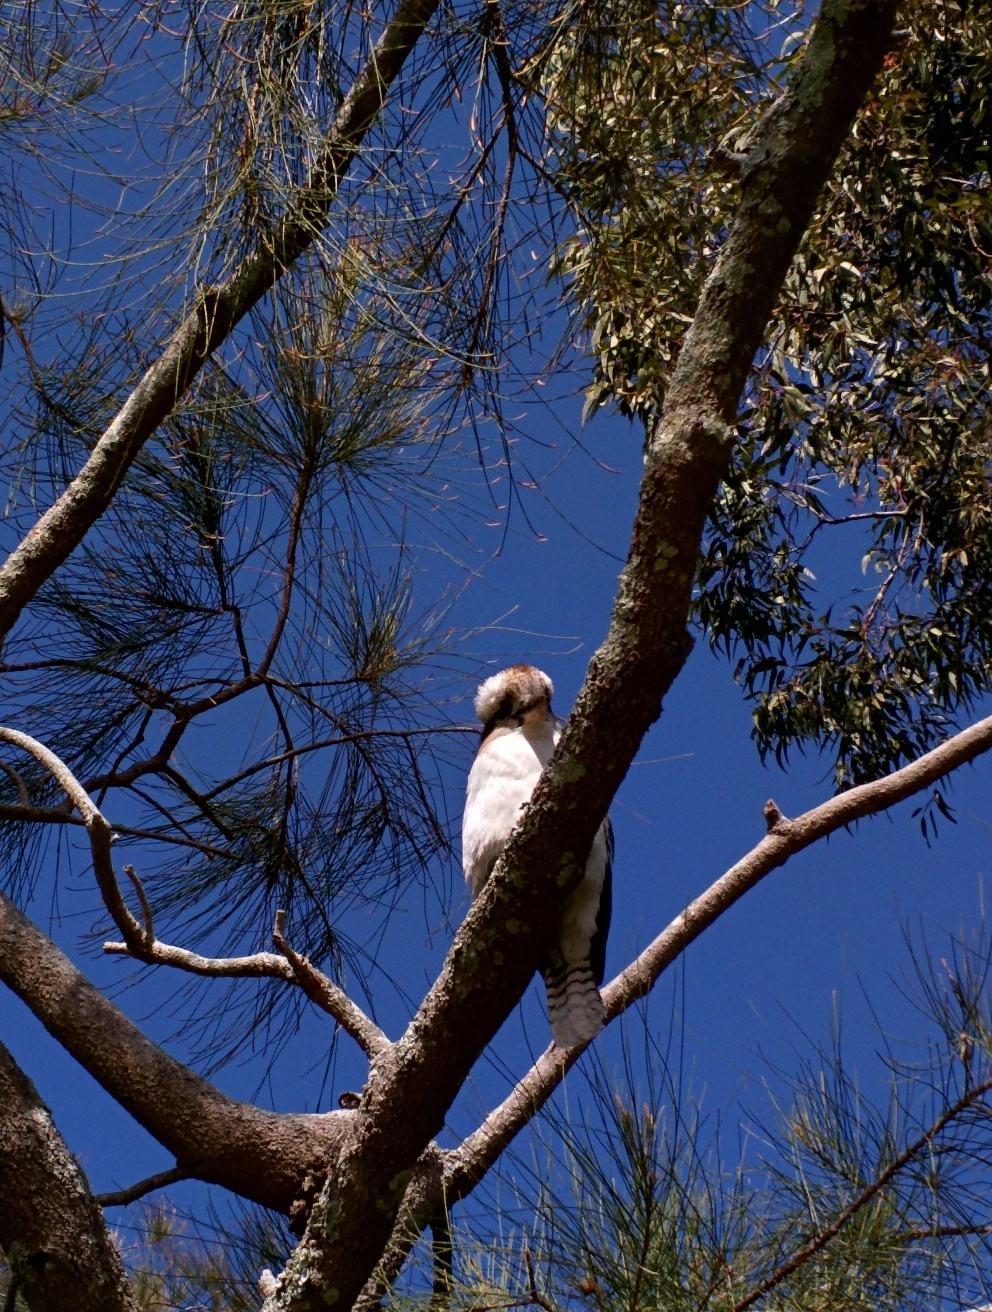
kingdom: Animalia
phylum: Chordata
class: Aves
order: Coraciiformes
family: Alcedinidae
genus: Dacelo
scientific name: Dacelo novaeguineae
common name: Laughing kookaburra
